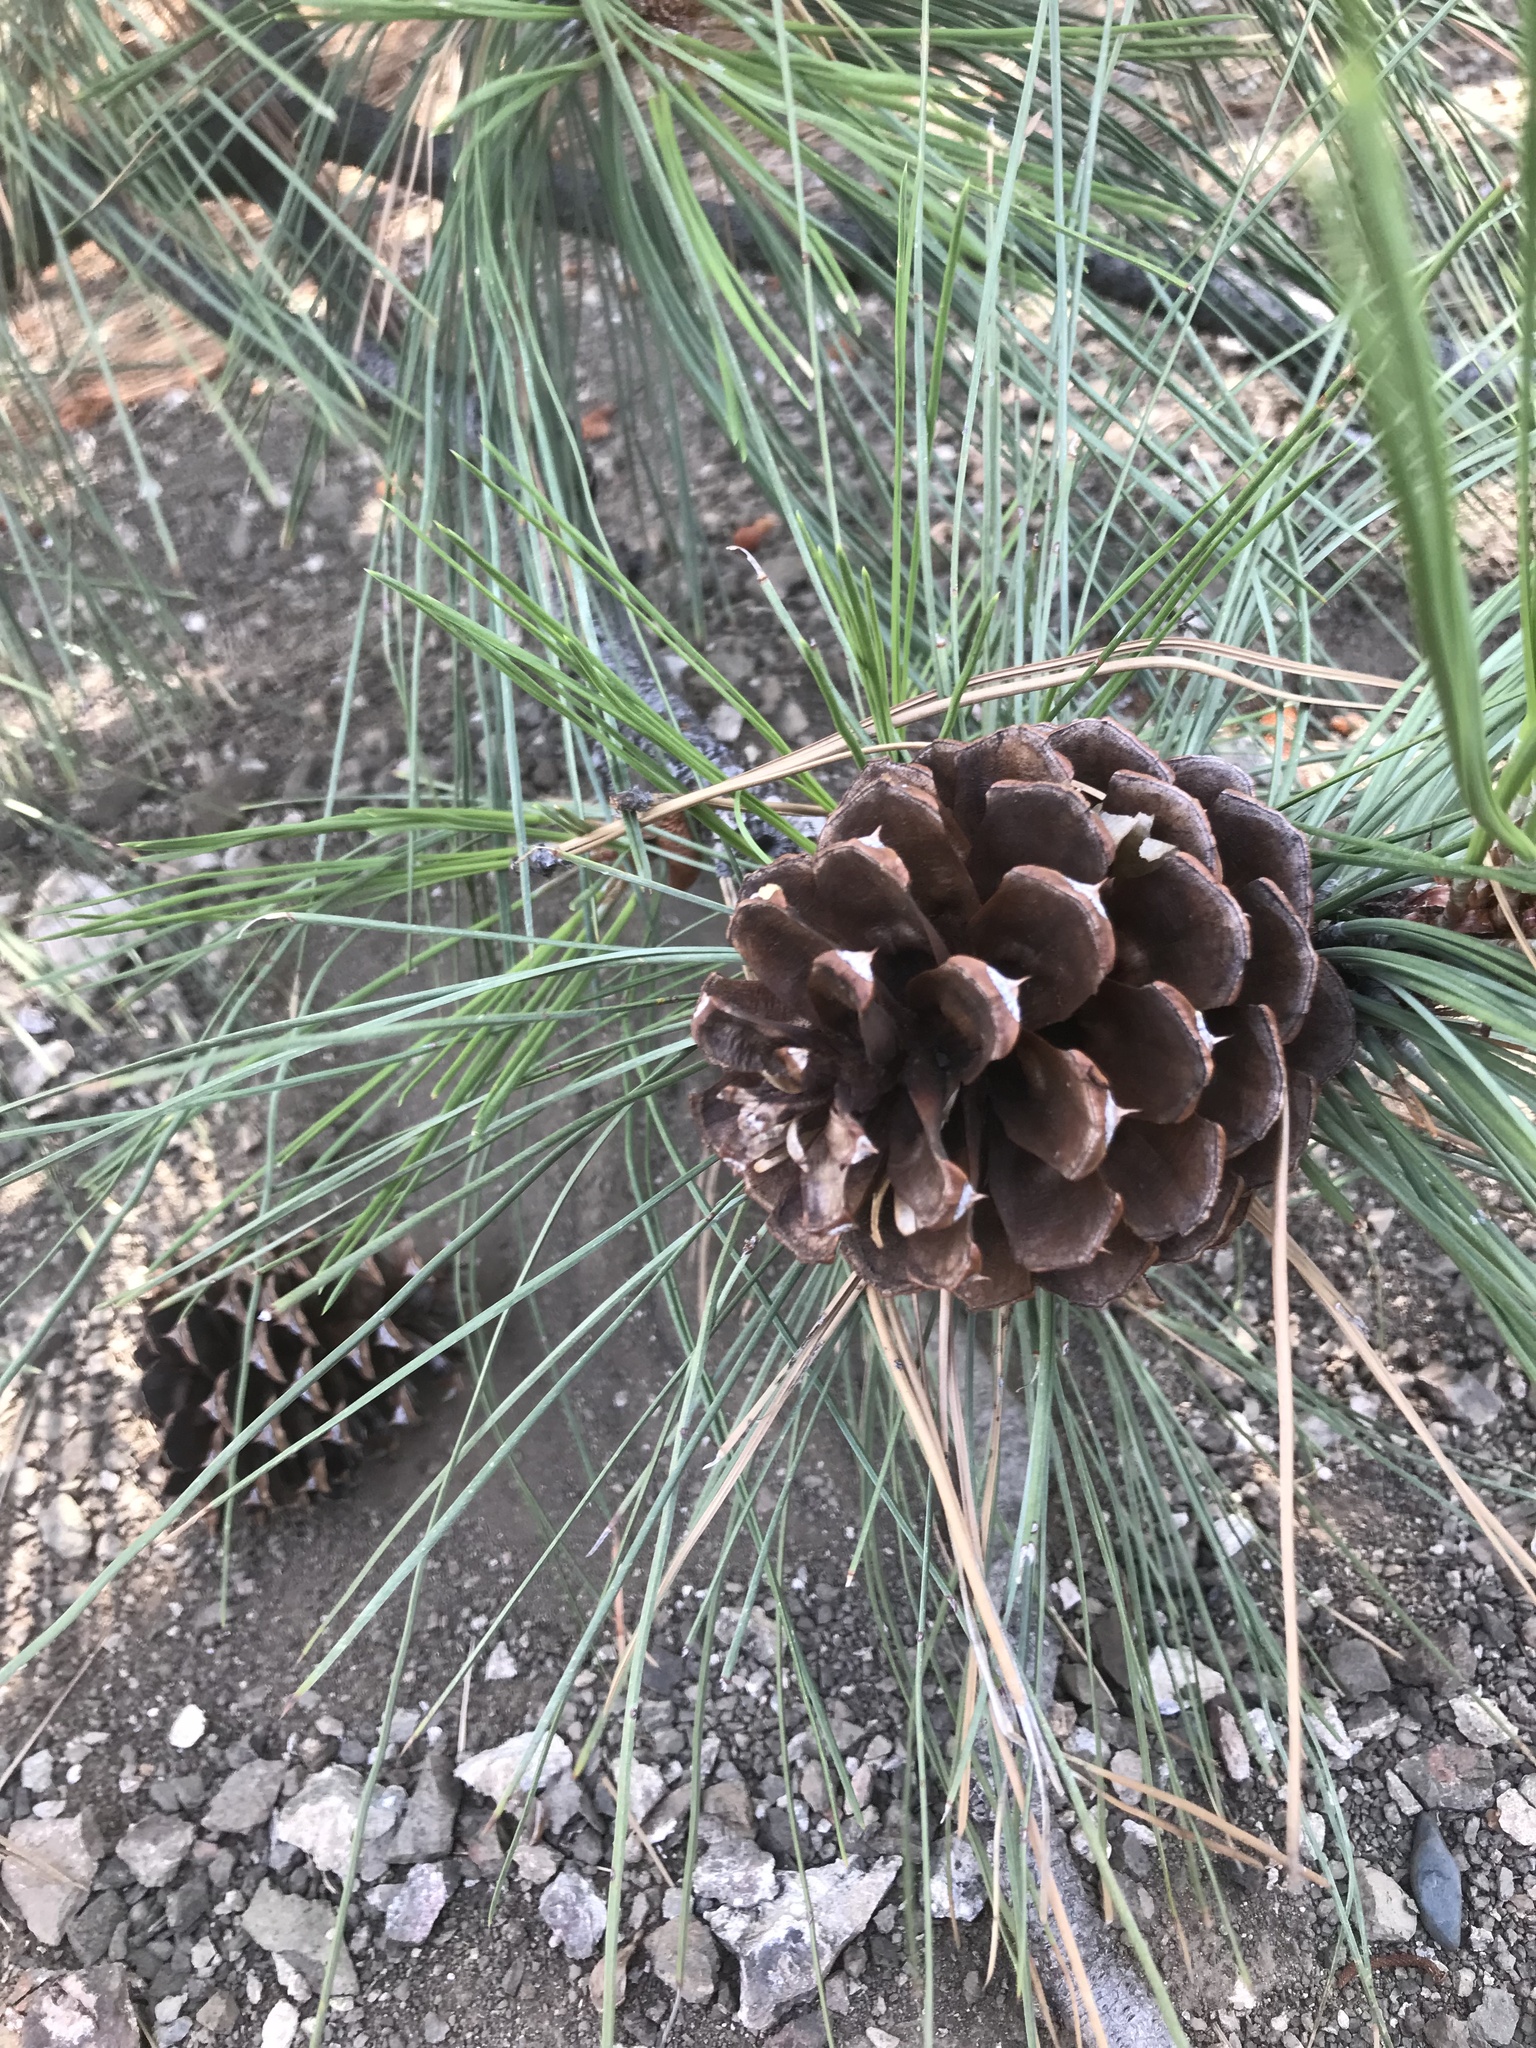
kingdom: Plantae
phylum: Tracheophyta
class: Pinopsida
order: Pinales
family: Pinaceae
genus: Pinus
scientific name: Pinus ponderosa
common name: Western yellow-pine
